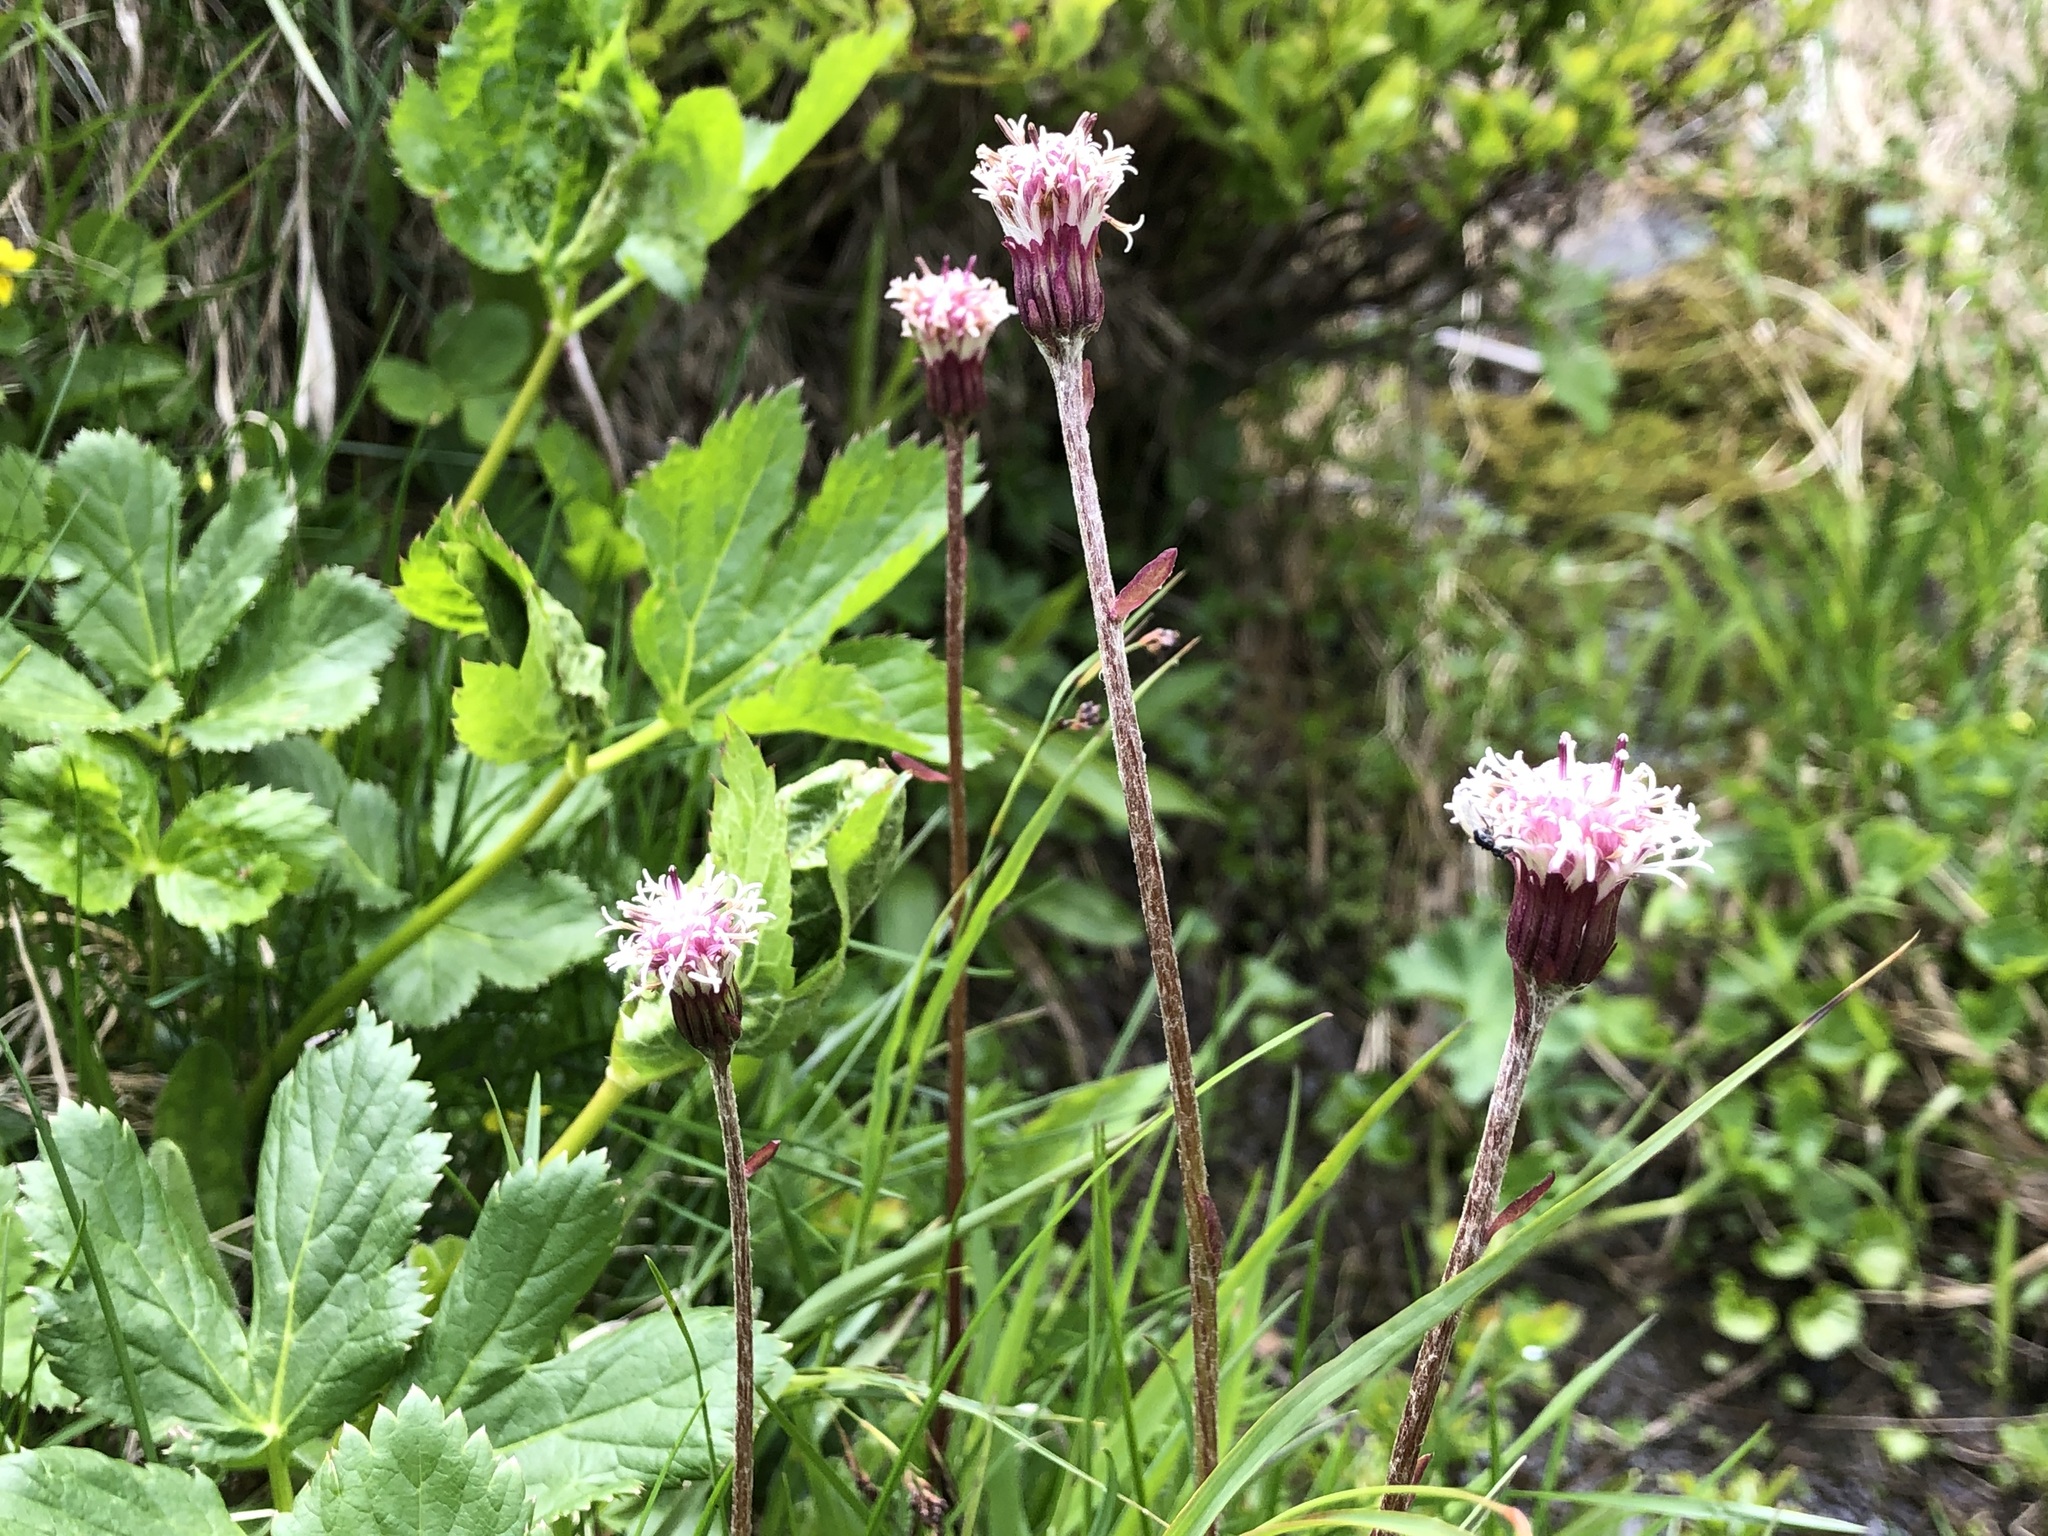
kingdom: Plantae
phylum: Tracheophyta
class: Magnoliopsida
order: Asterales
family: Asteraceae
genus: Homogyne
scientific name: Homogyne alpina
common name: Purple colt's-foot
